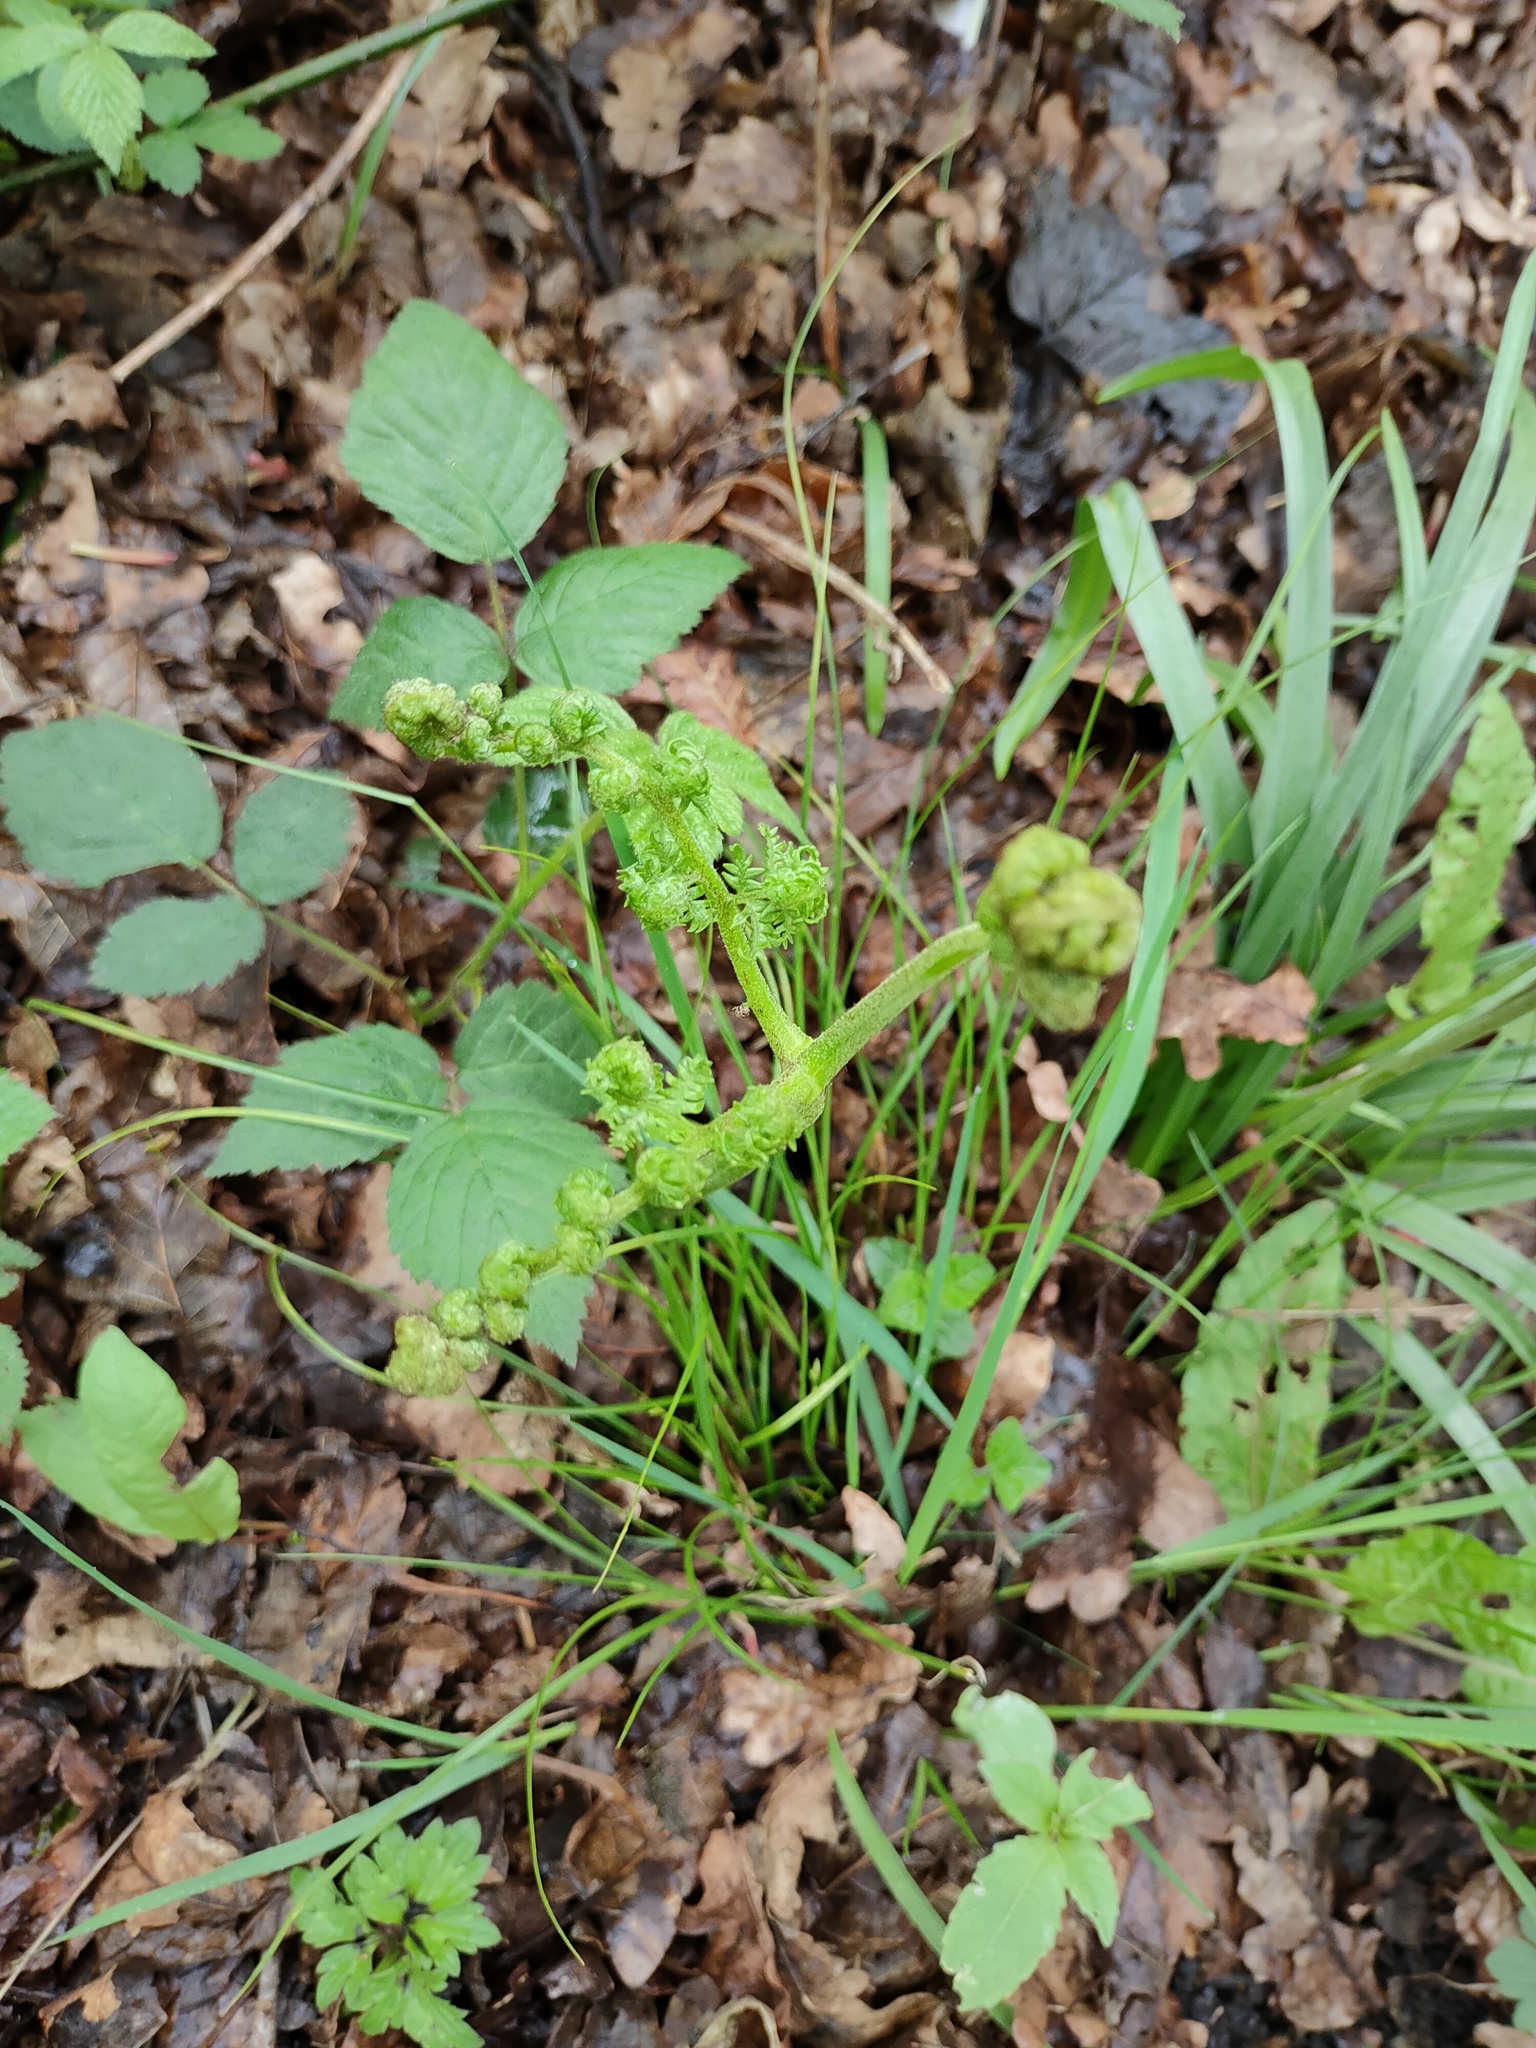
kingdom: Plantae
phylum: Tracheophyta
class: Polypodiopsida
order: Polypodiales
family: Dennstaedtiaceae
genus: Pteridium
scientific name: Pteridium aquilinum
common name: Bracken
